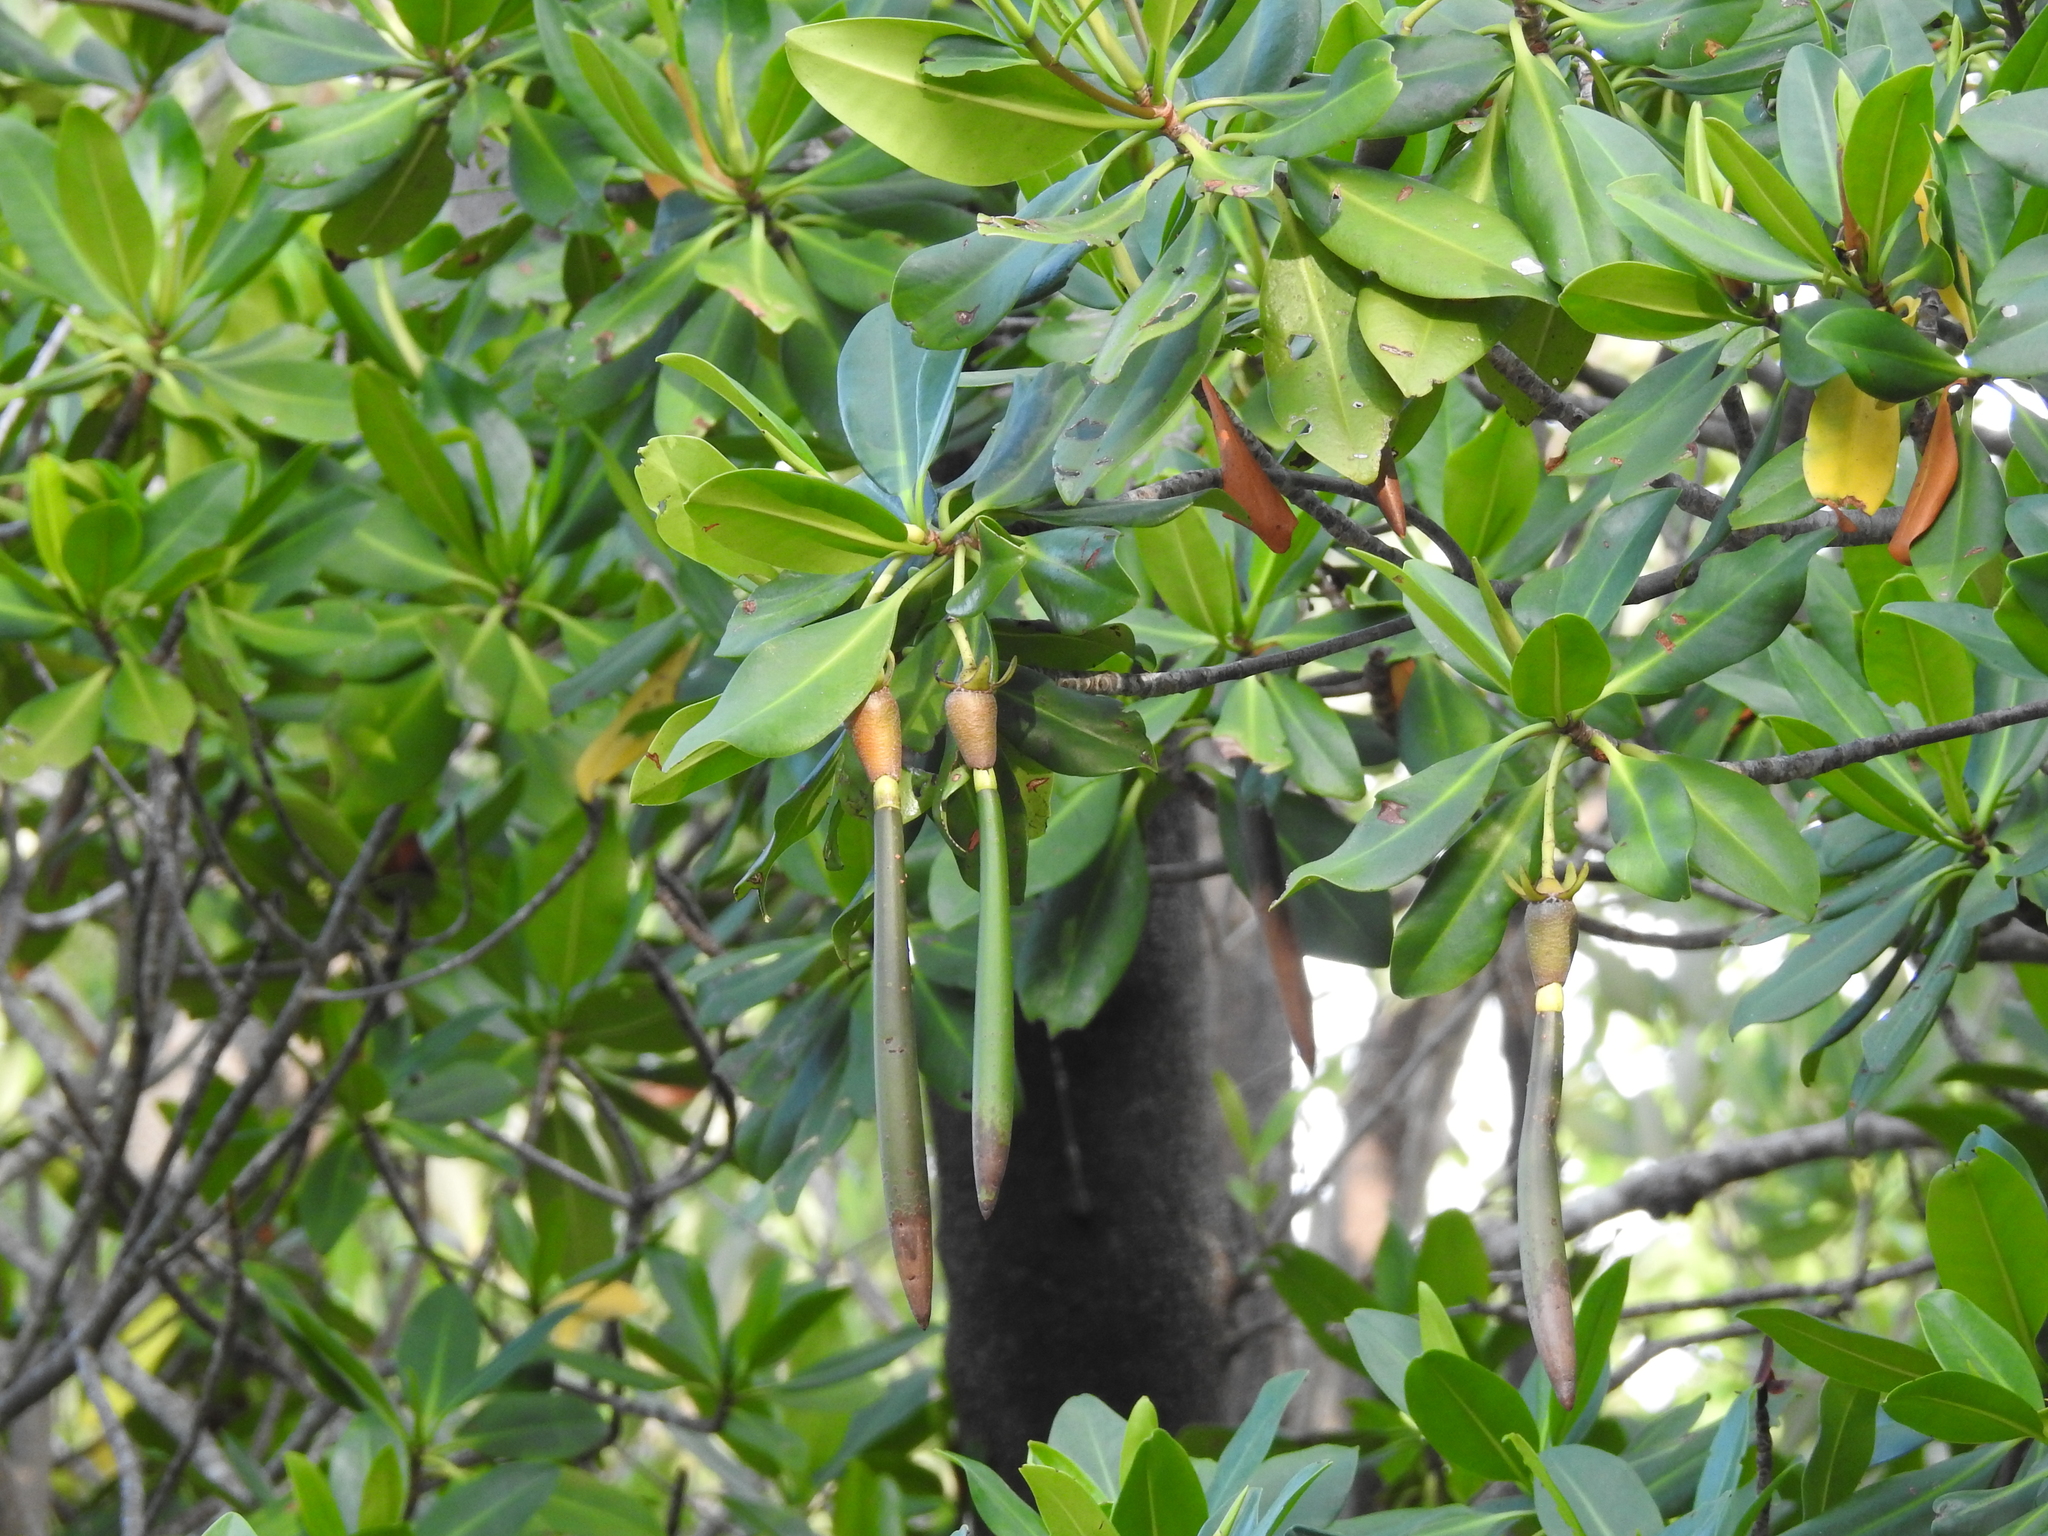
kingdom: Plantae
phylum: Tracheophyta
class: Magnoliopsida
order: Malpighiales
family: Rhizophoraceae
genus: Rhizophora
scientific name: Rhizophora mangle
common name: Red mangrove
